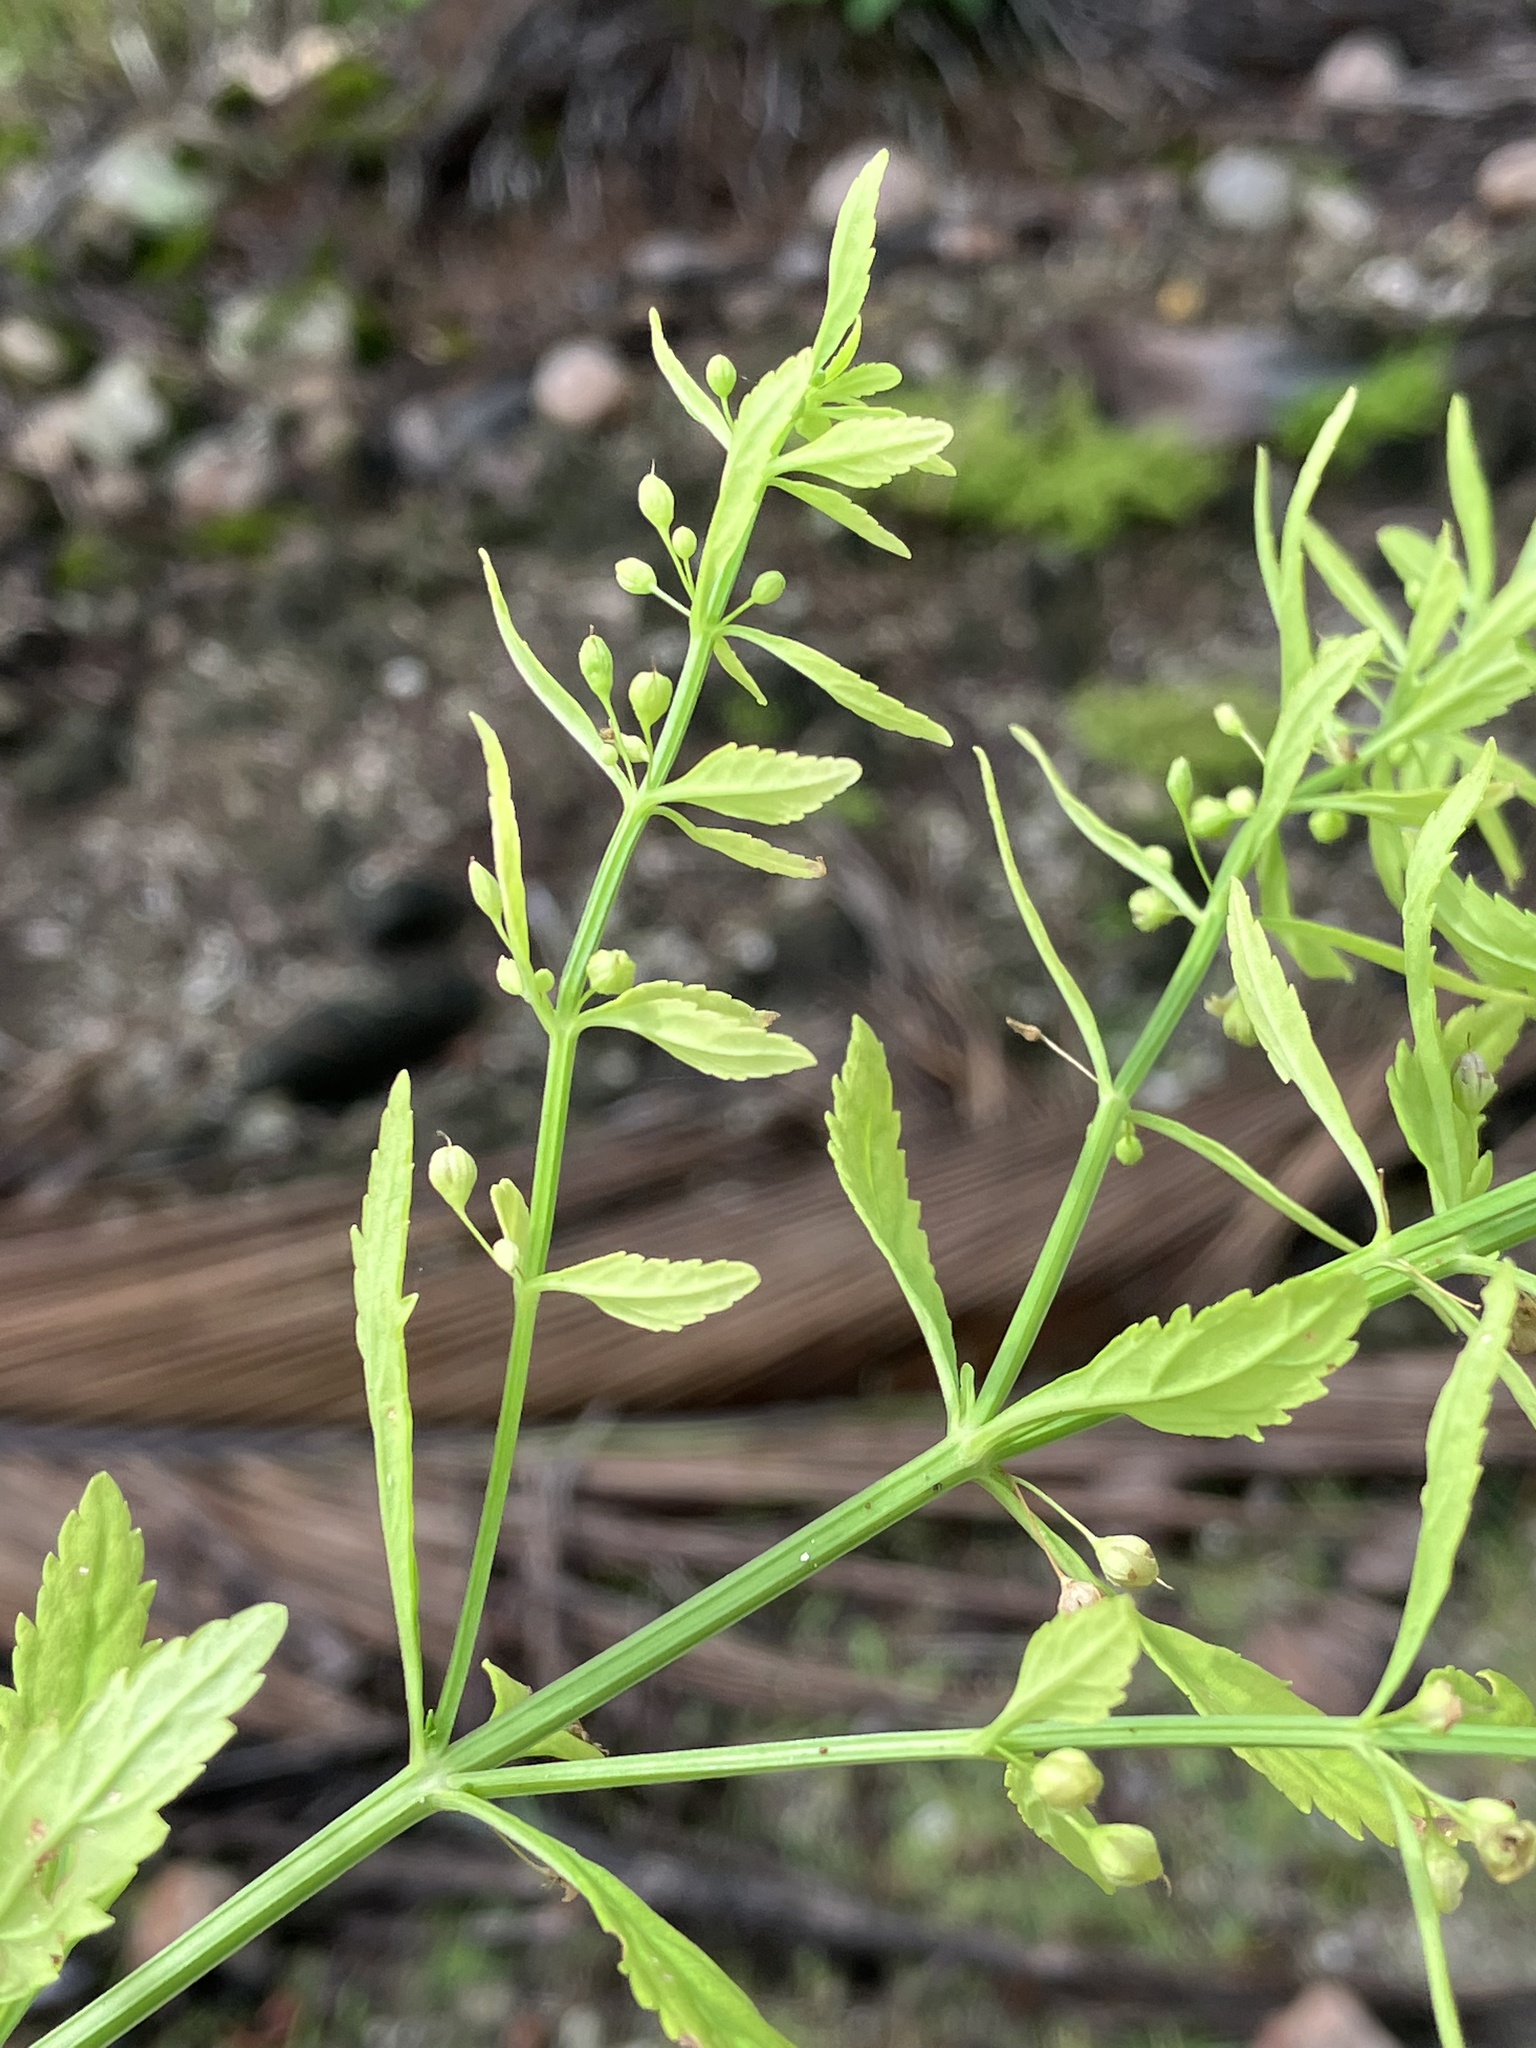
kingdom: Plantae
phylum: Tracheophyta
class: Magnoliopsida
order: Lamiales
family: Plantaginaceae
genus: Scoparia
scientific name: Scoparia dulcis
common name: Scoparia-weed
